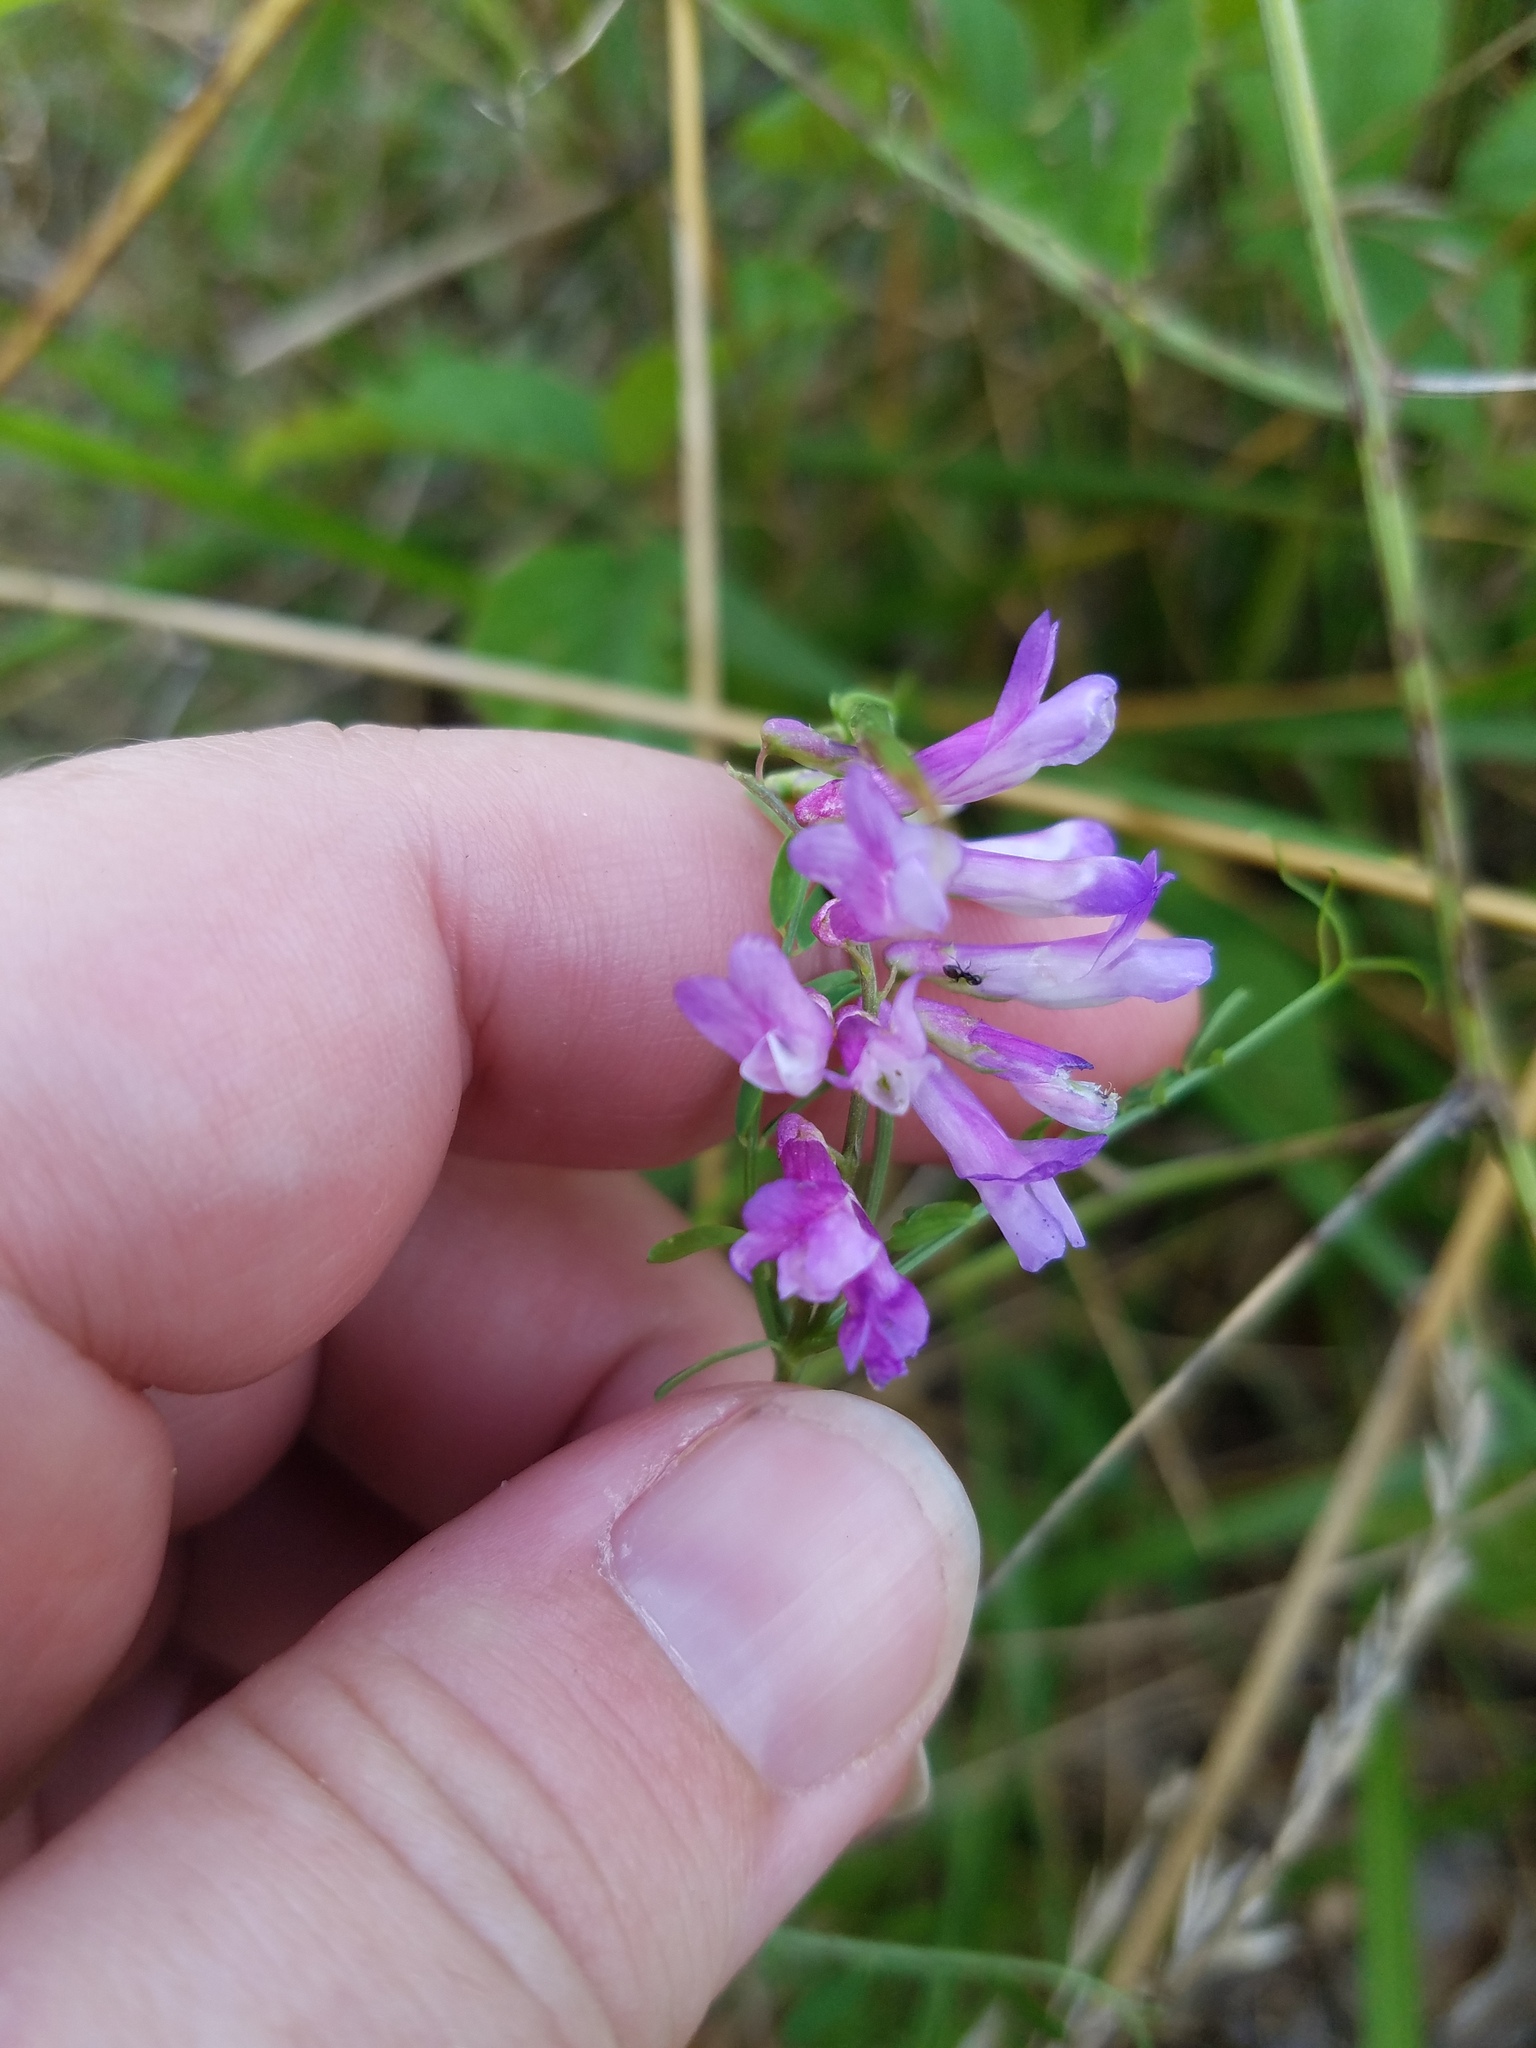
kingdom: Plantae
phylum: Tracheophyta
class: Magnoliopsida
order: Fabales
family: Fabaceae
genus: Vicia
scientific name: Vicia villosa
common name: Fodder vetch
